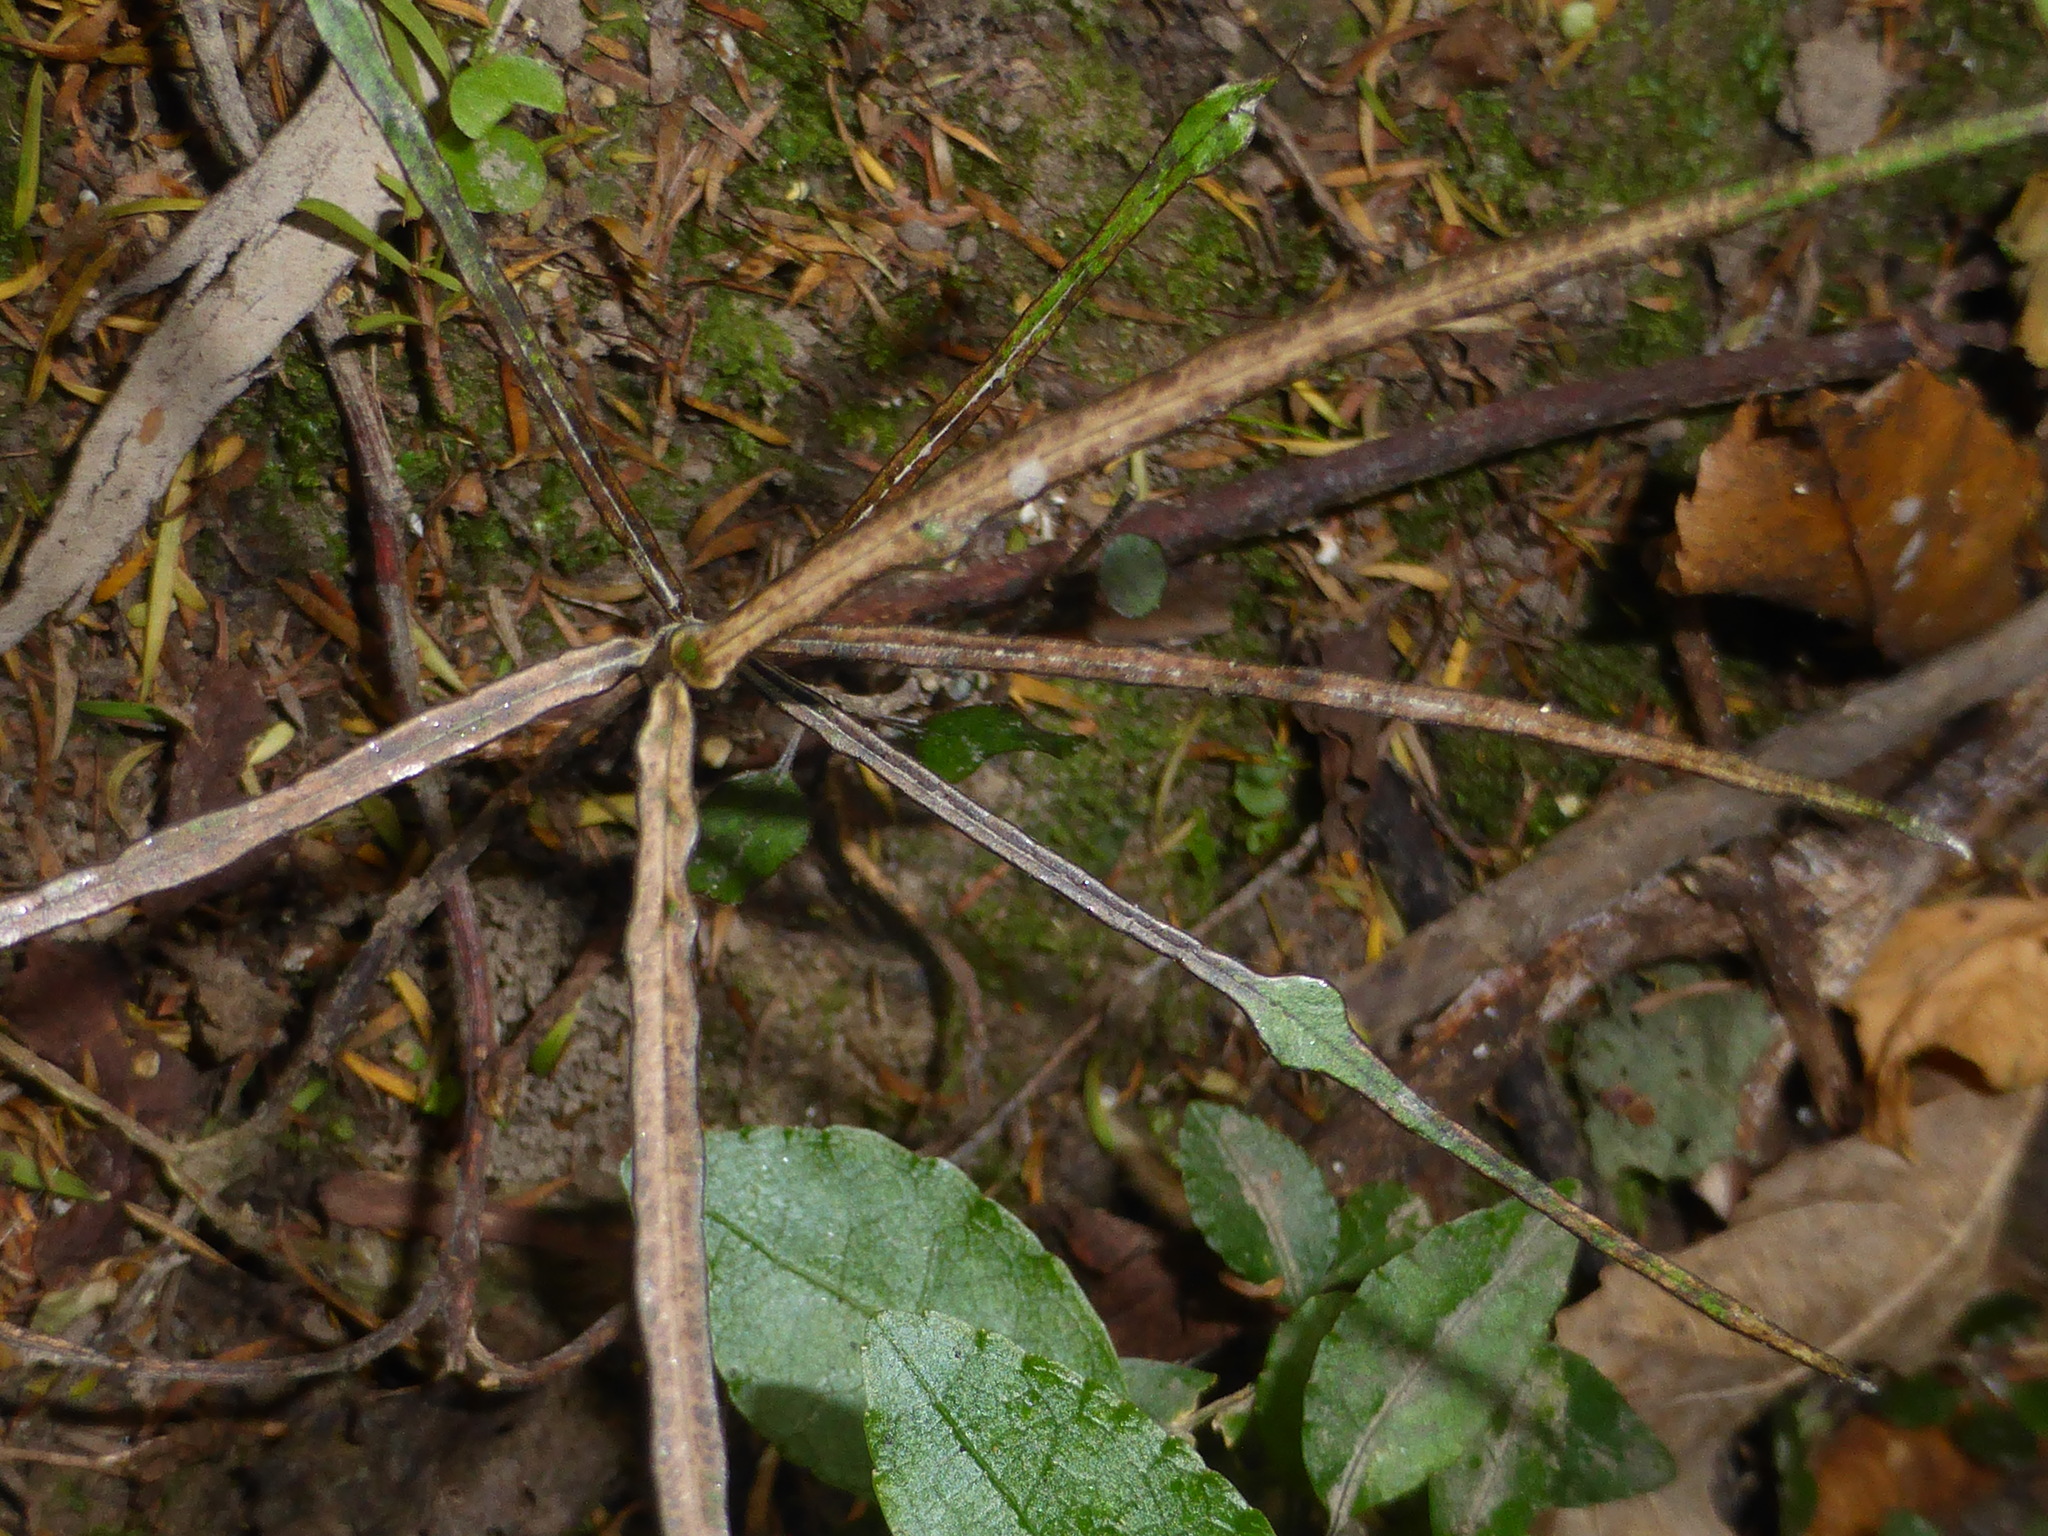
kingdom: Plantae
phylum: Tracheophyta
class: Magnoliopsida
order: Gentianales
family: Apocynaceae
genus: Parsonsia
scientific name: Parsonsia heterophylla
